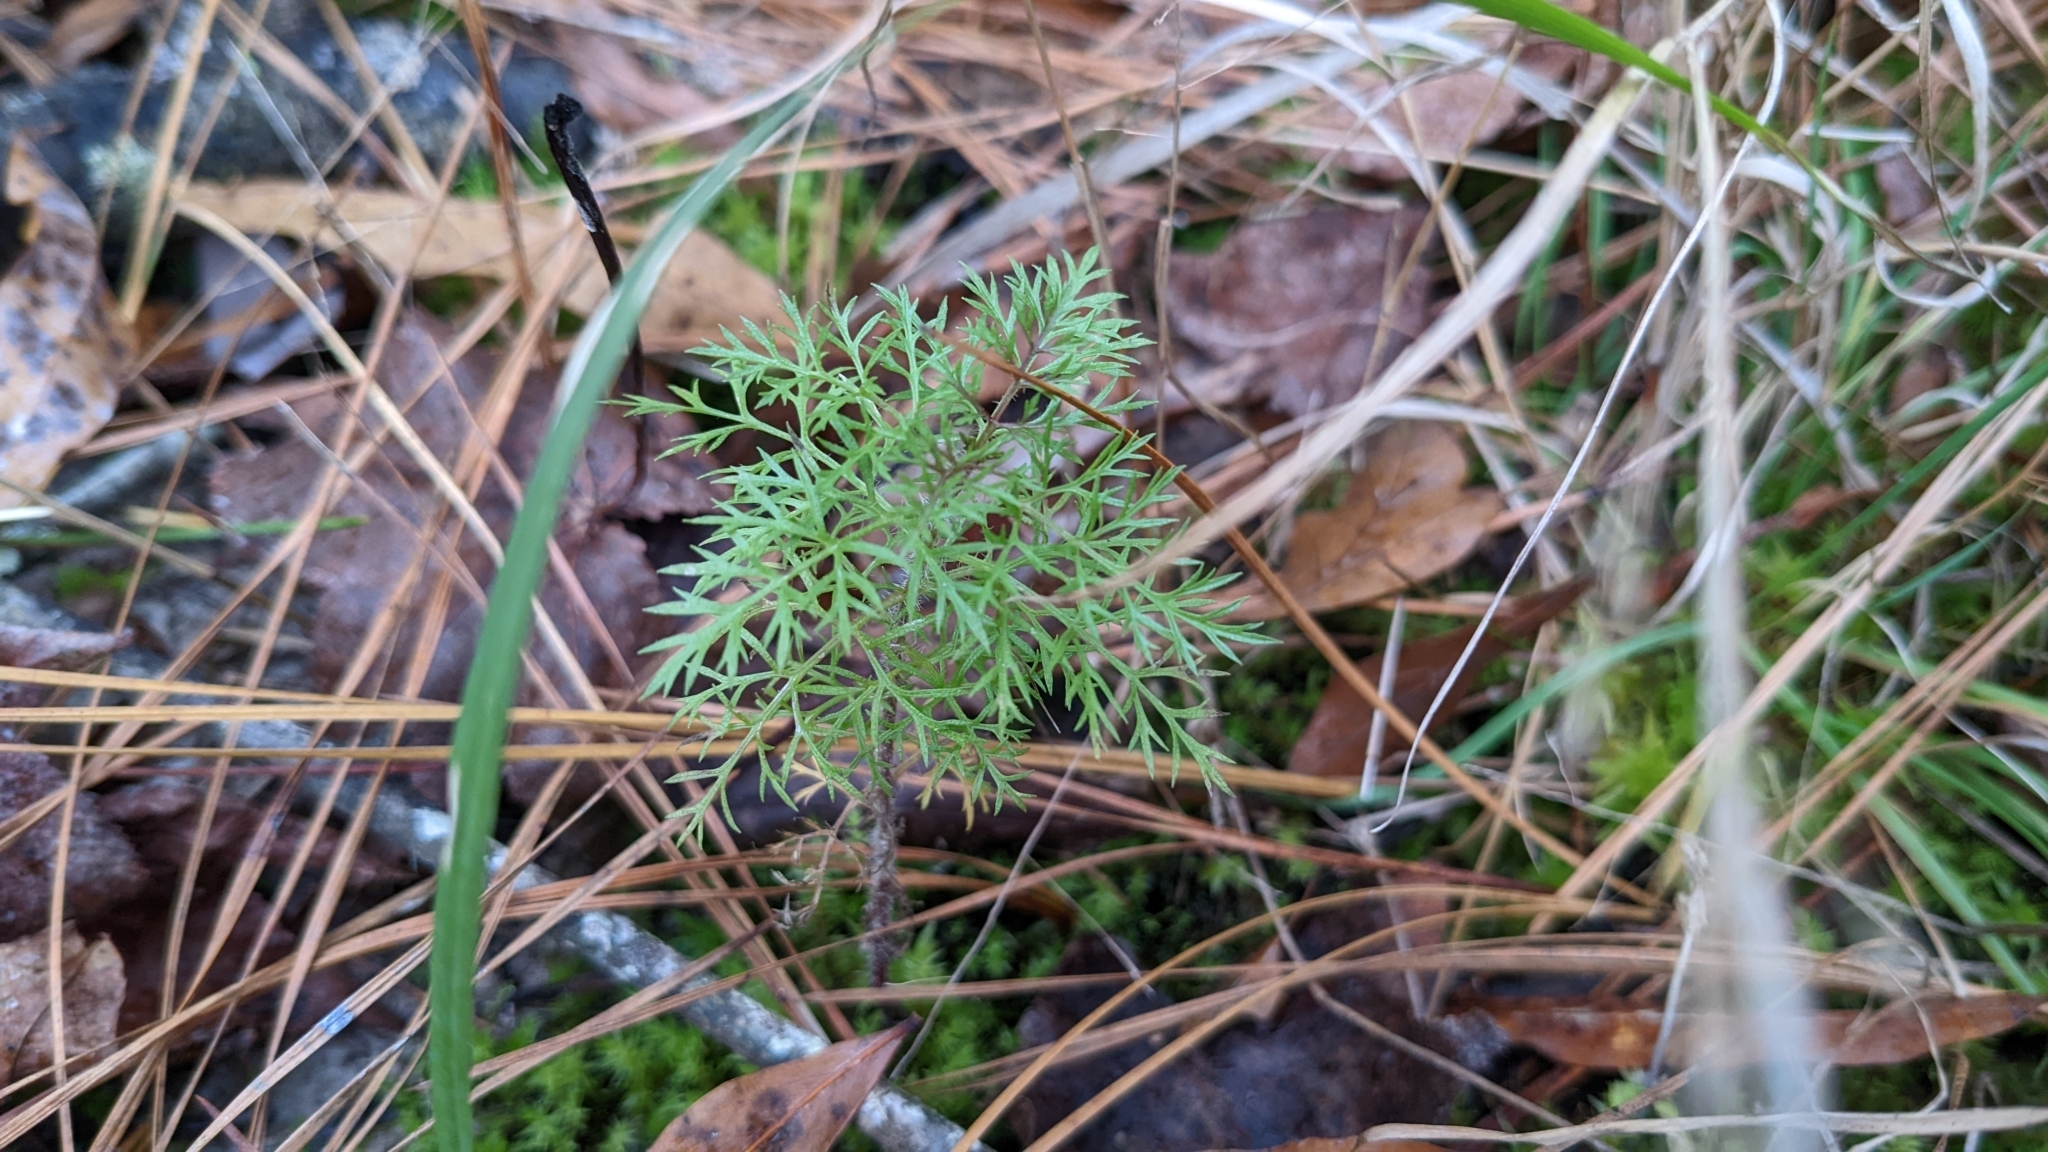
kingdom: Plantae
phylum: Tracheophyta
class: Magnoliopsida
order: Asterales
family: Asteraceae
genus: Eupatorium
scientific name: Eupatorium capillifolium
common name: Dog-fennel
